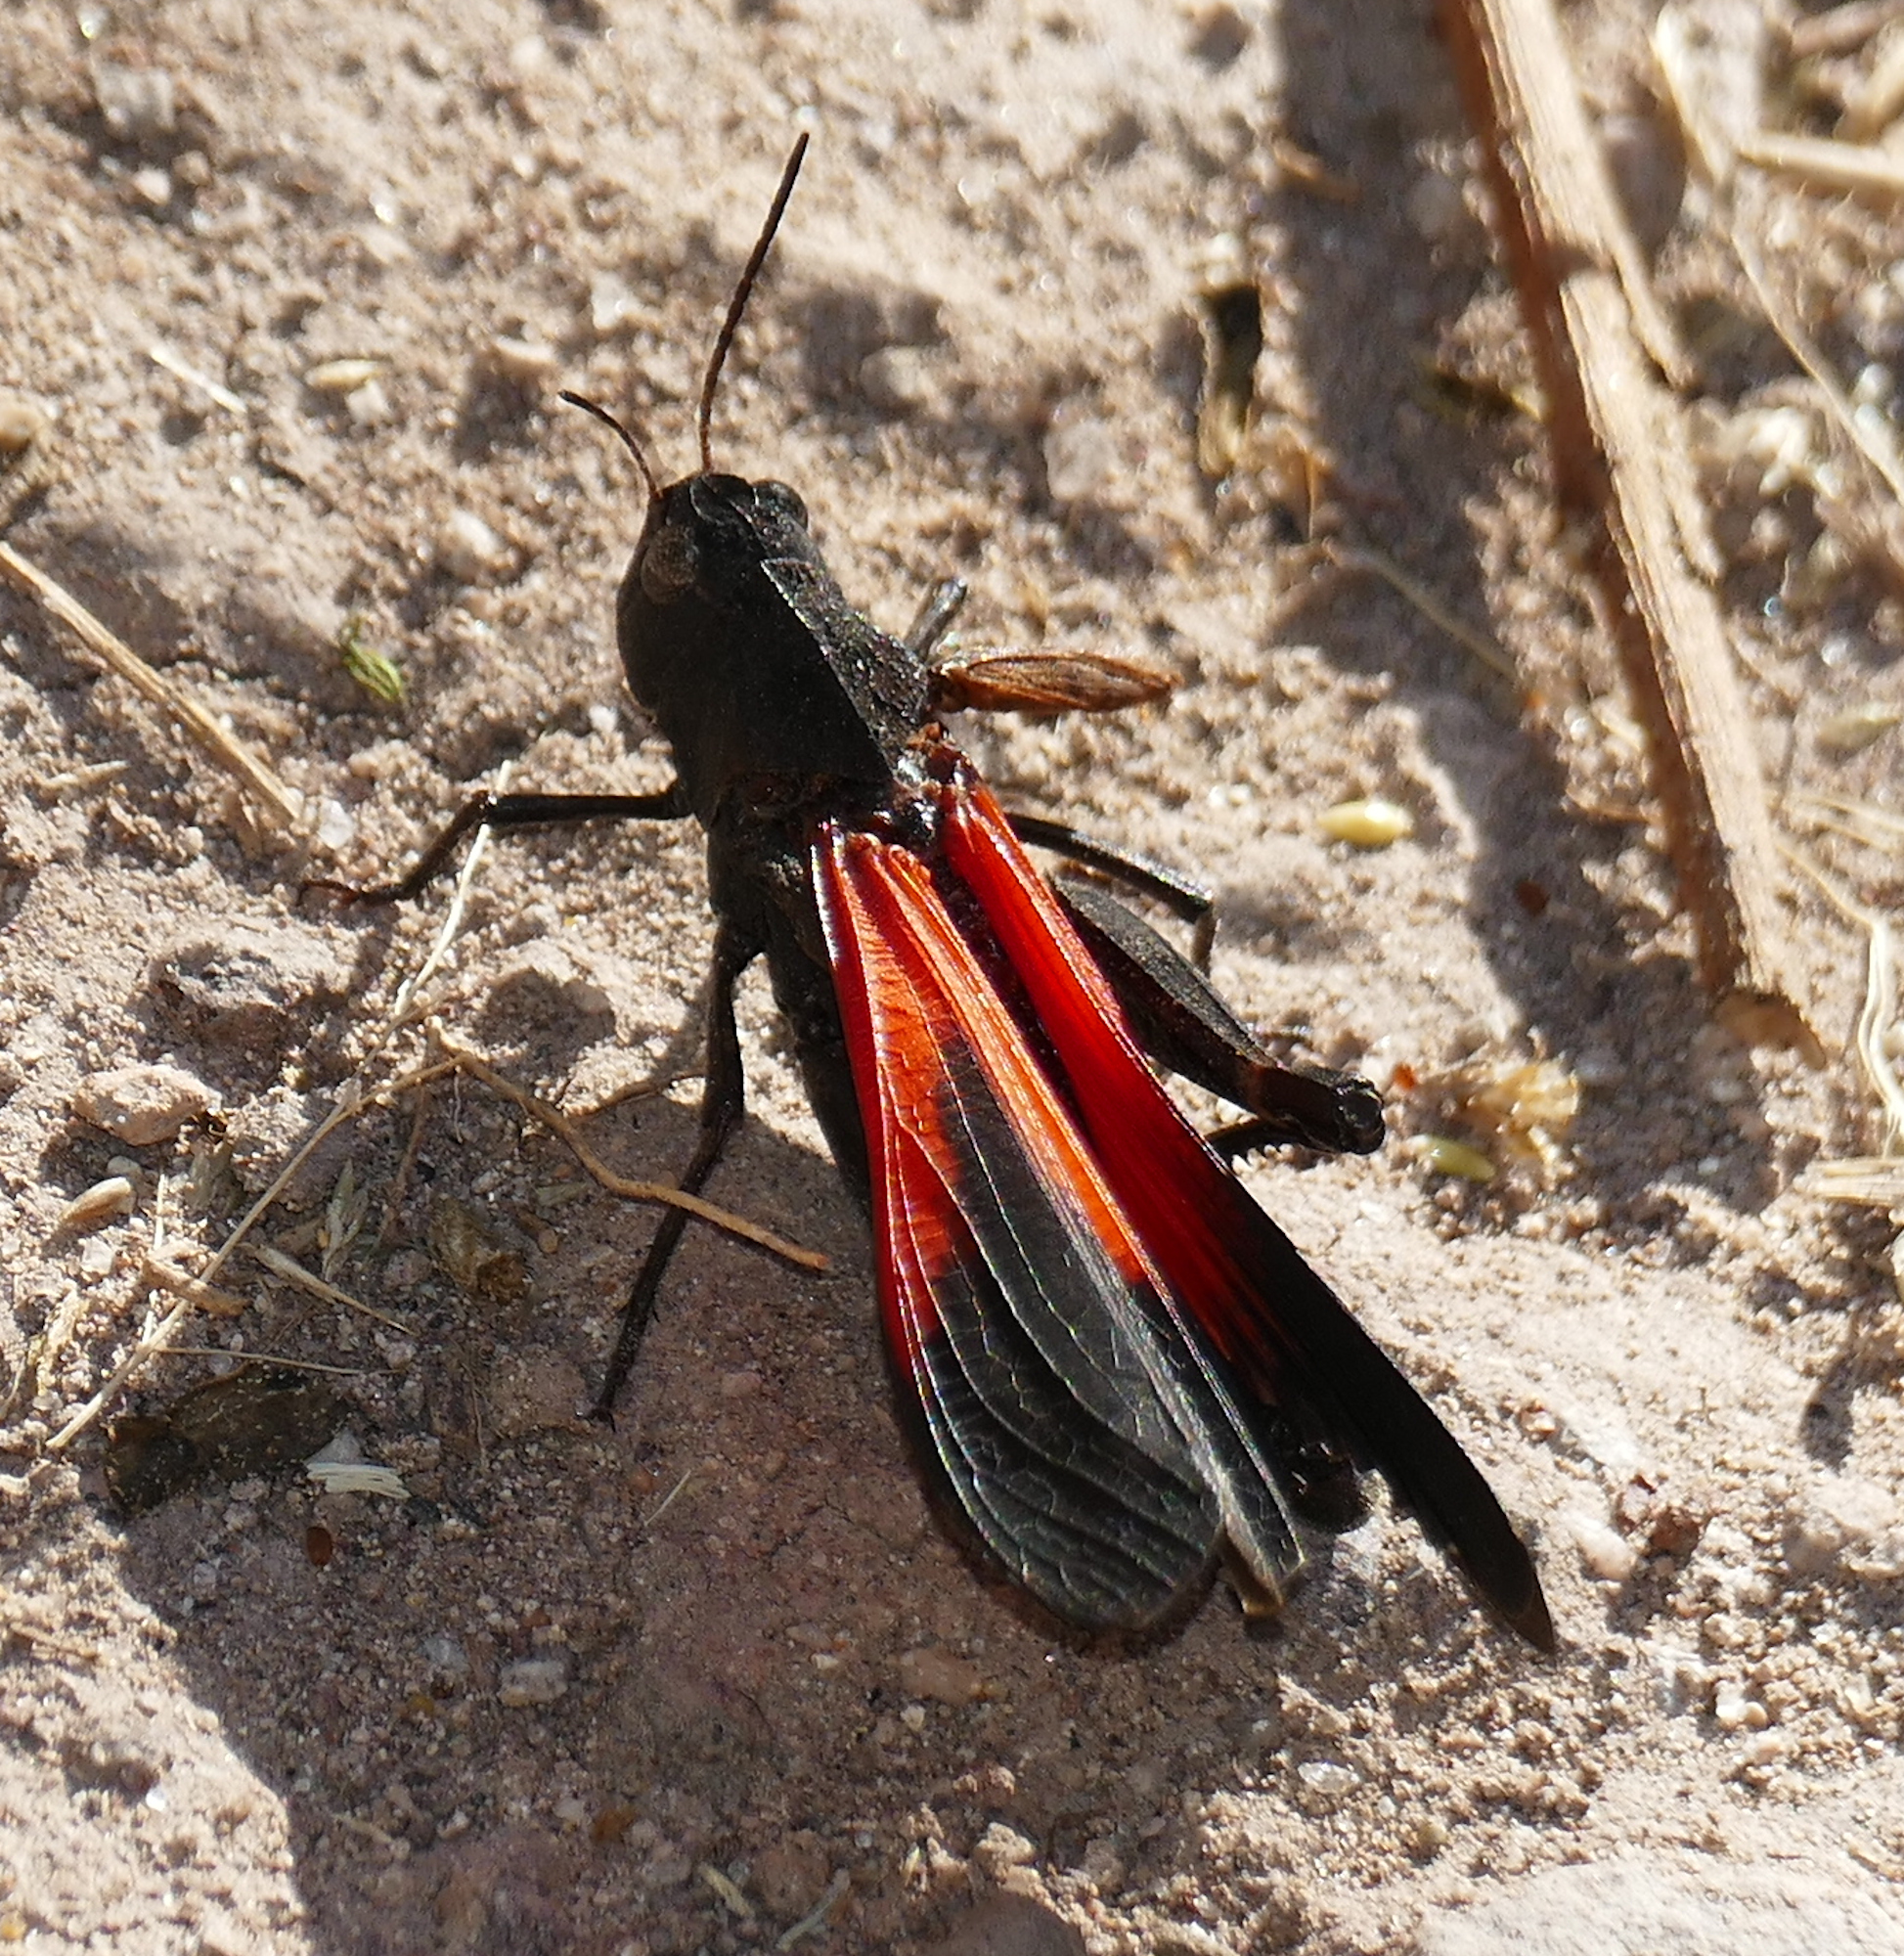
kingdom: Animalia
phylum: Arthropoda
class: Insecta
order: Orthoptera
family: Acrididae
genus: Arphia
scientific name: Arphia pseudo-nietana
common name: Red-winged grasshopper
